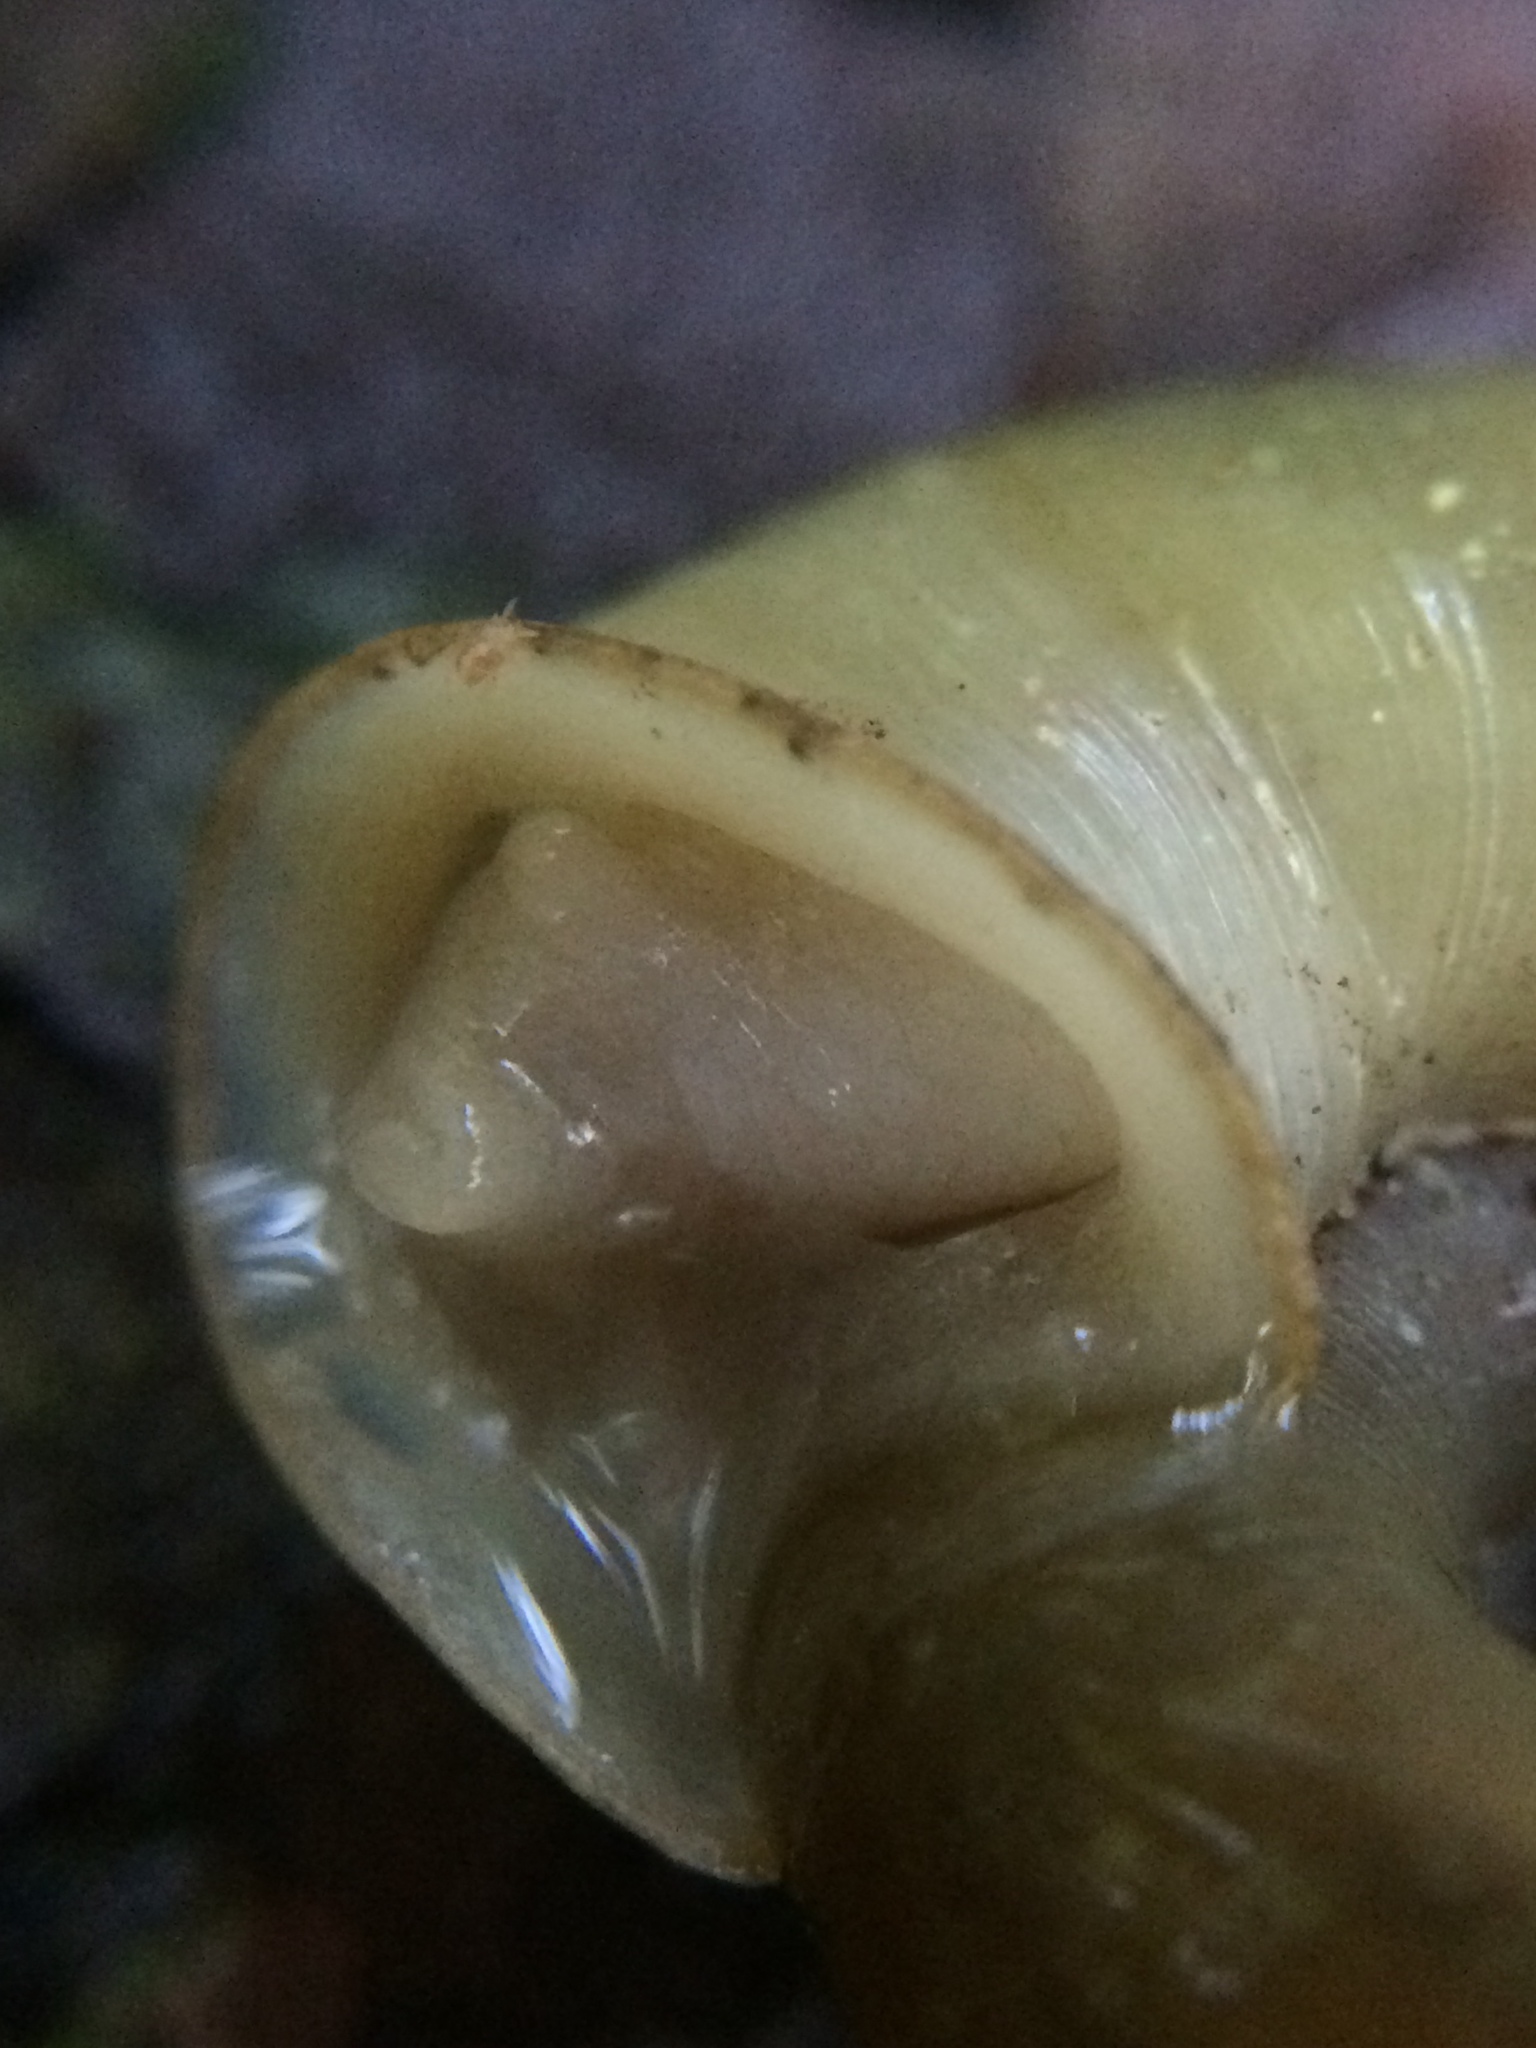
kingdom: Animalia
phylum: Mollusca
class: Gastropoda
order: Stylommatophora
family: Haplotrematidae
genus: Haplotrema
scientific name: Haplotrema vancouverense
